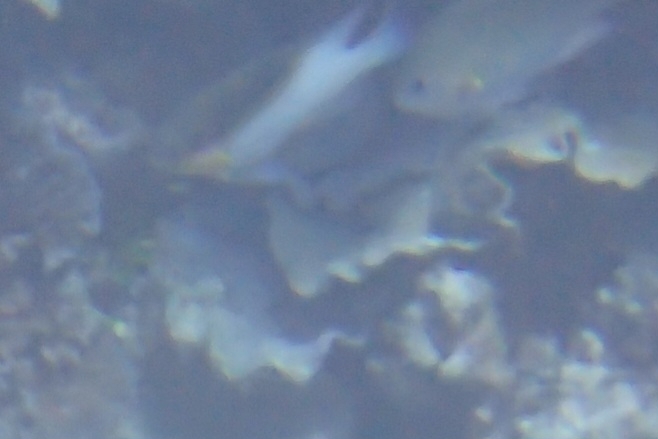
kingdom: Animalia
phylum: Chordata
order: Perciformes
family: Pomacentridae
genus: Dischistodus
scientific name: Dischistodus melanotus
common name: Black-vent damsel
